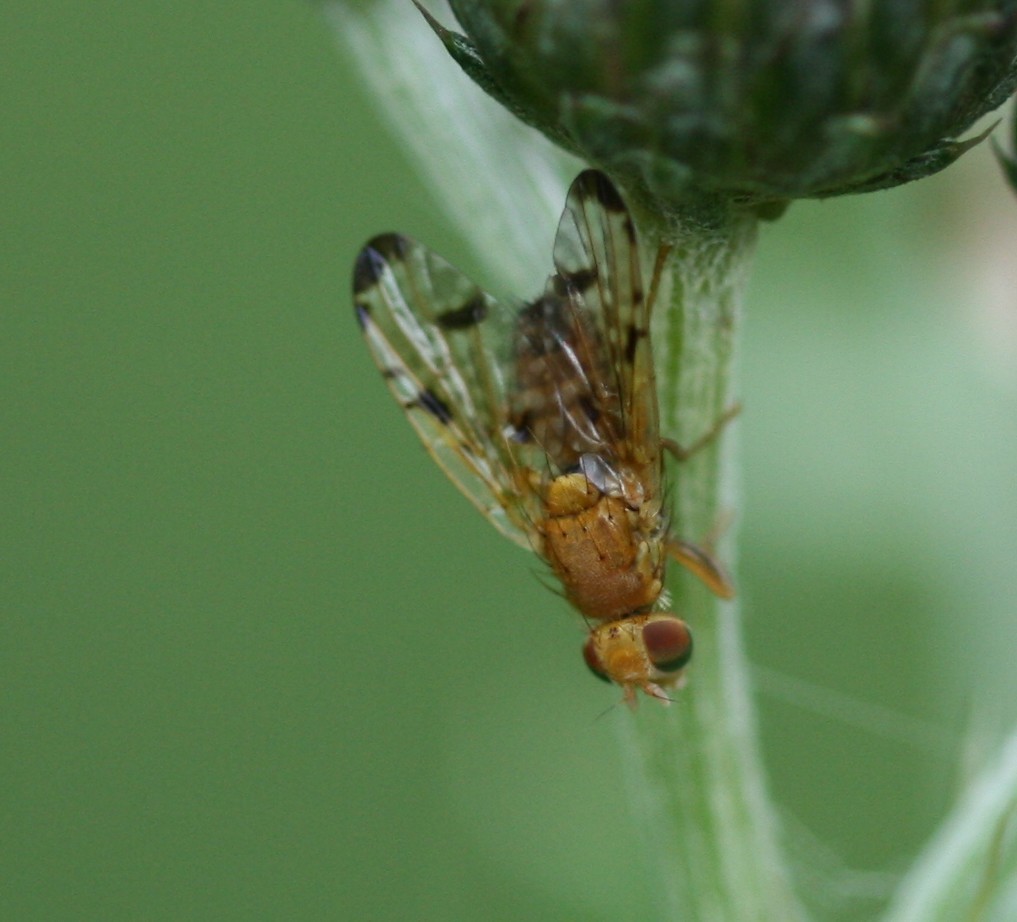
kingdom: Animalia
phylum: Arthropoda
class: Insecta
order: Diptera
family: Tephritidae
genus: Xyphosia
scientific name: Xyphosia miliaria
